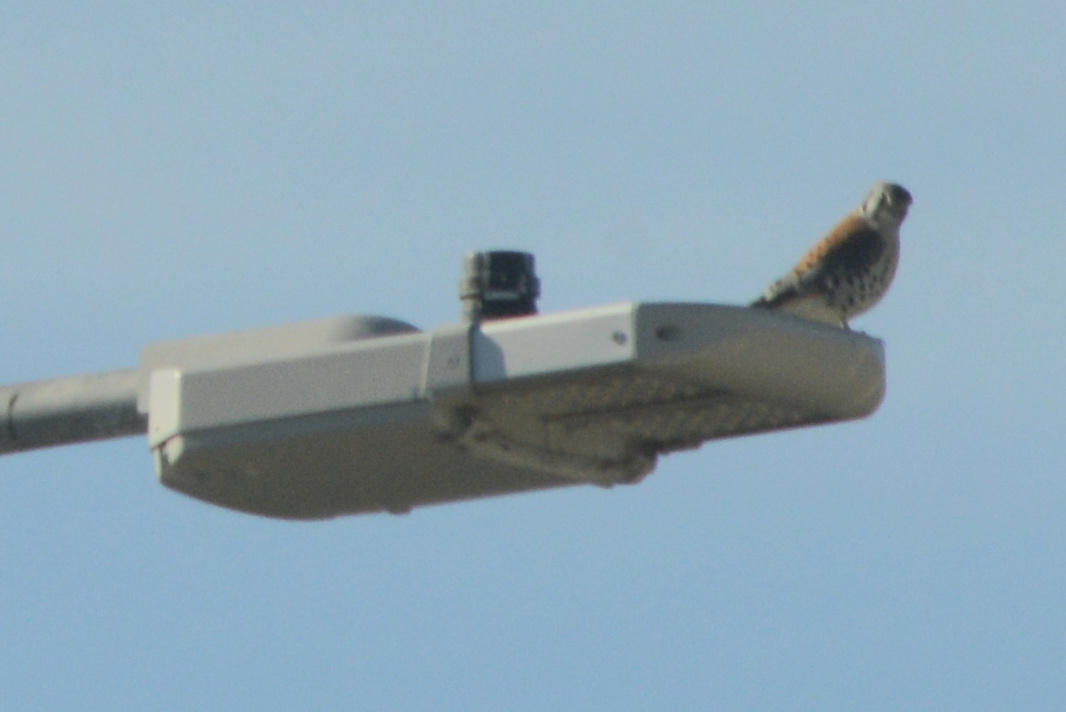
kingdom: Animalia
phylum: Chordata
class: Aves
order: Falconiformes
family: Falconidae
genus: Falco
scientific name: Falco sparverius
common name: American kestrel
